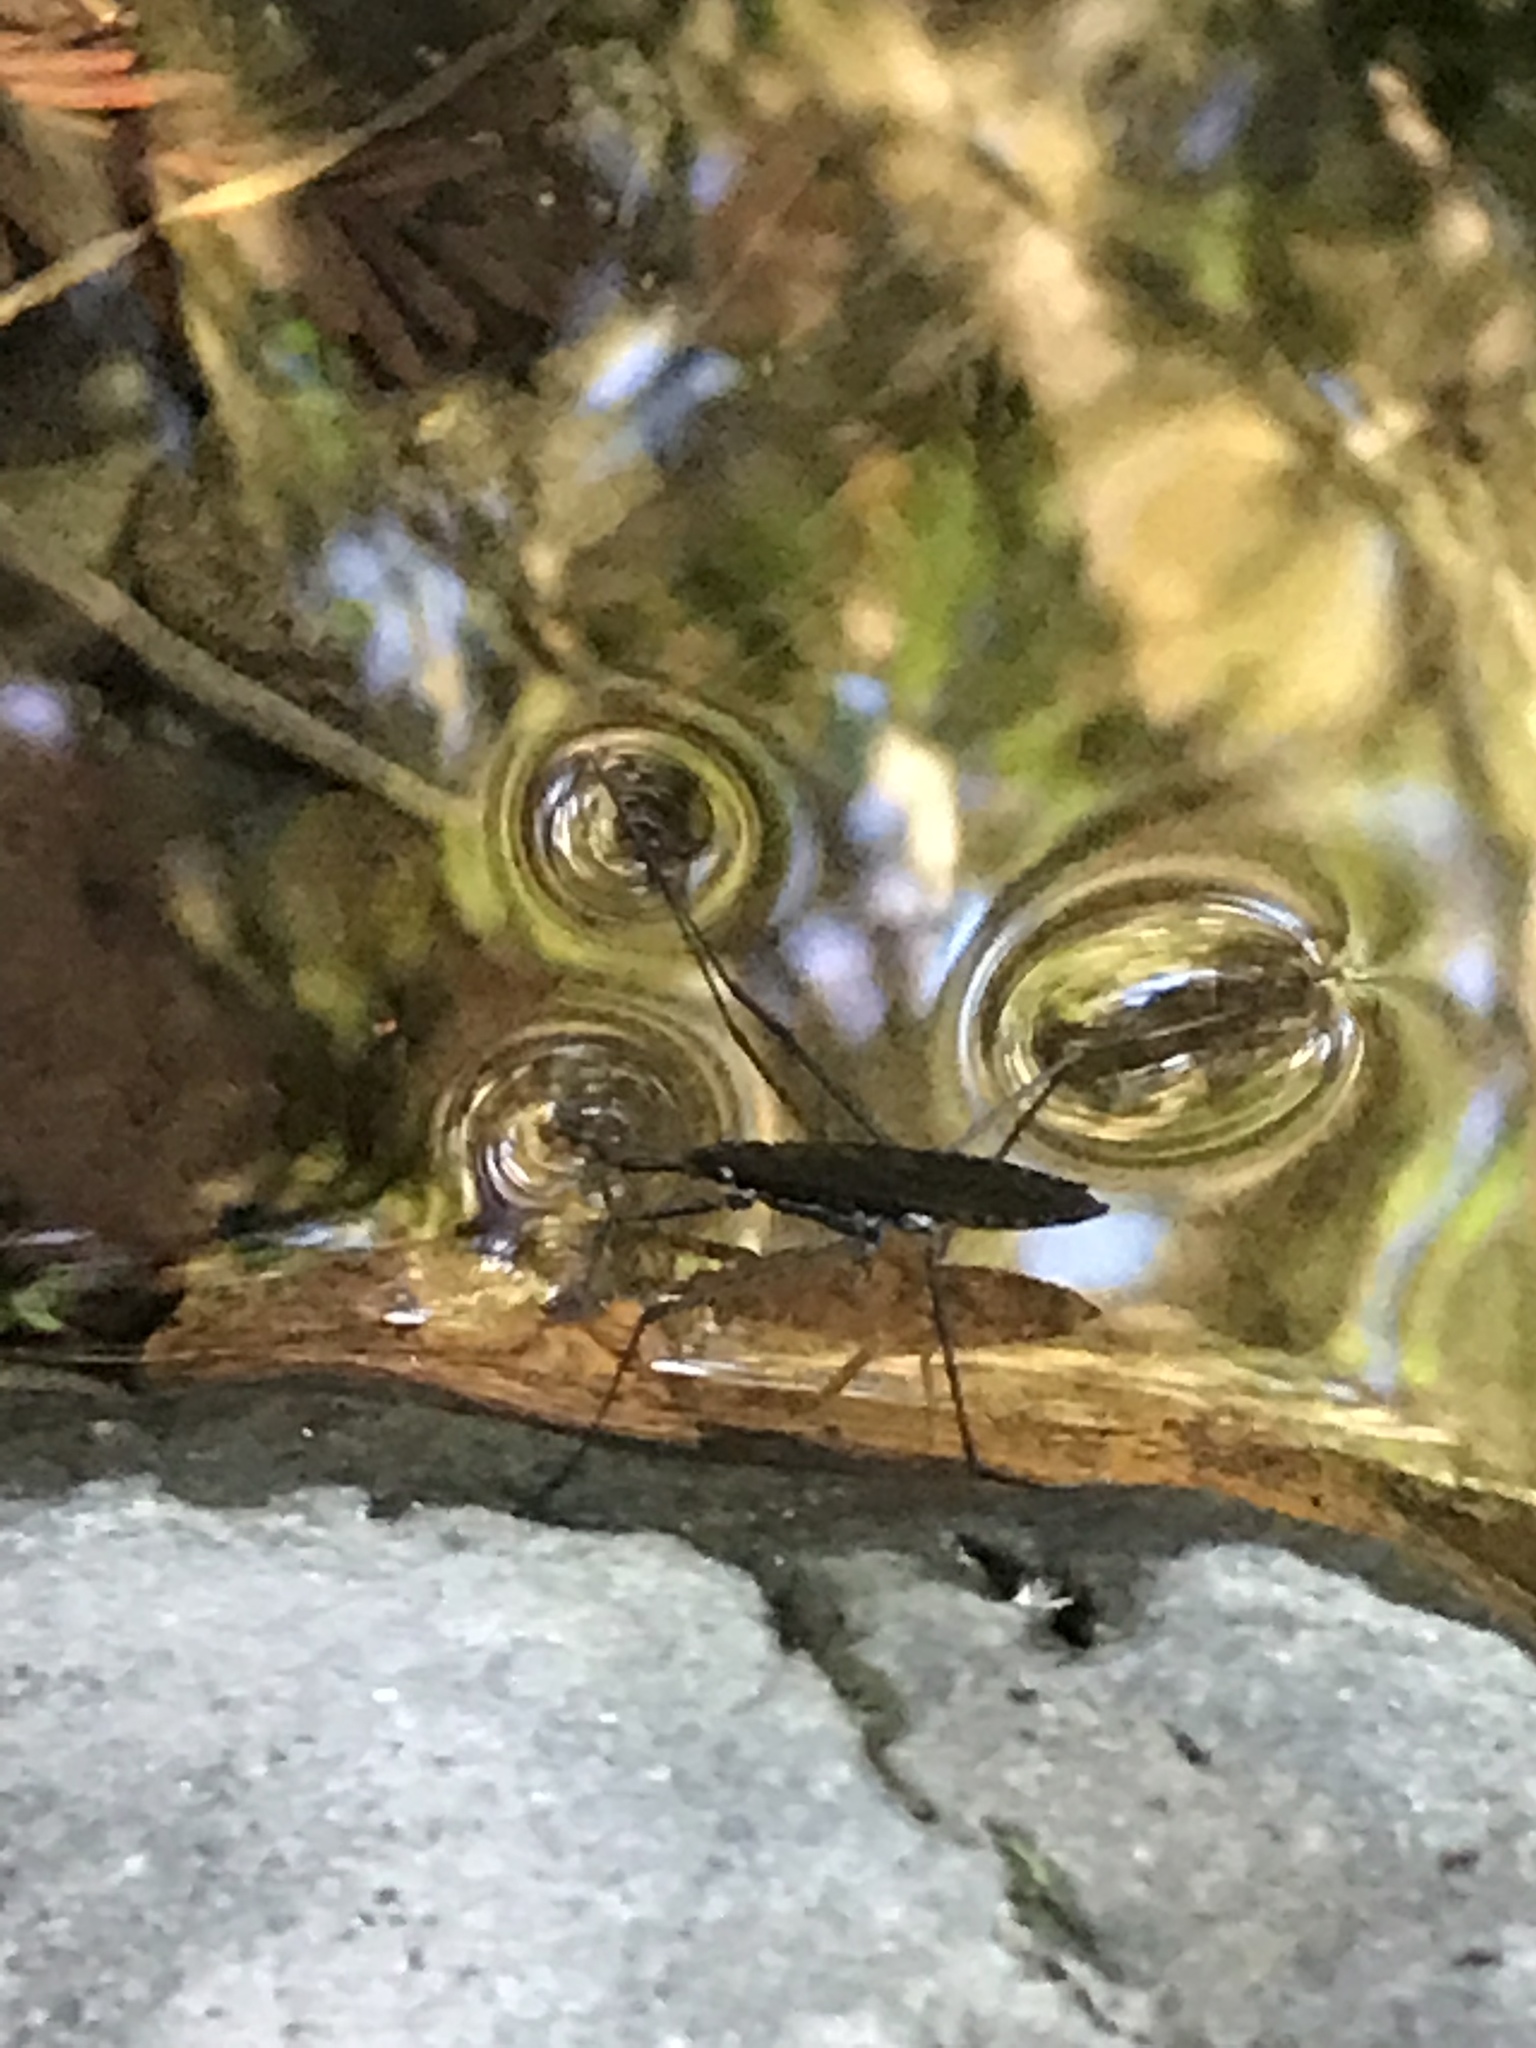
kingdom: Animalia
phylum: Arthropoda
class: Insecta
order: Hemiptera
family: Gerridae
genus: Aquarius
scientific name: Aquarius remigis
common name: Common water strider
